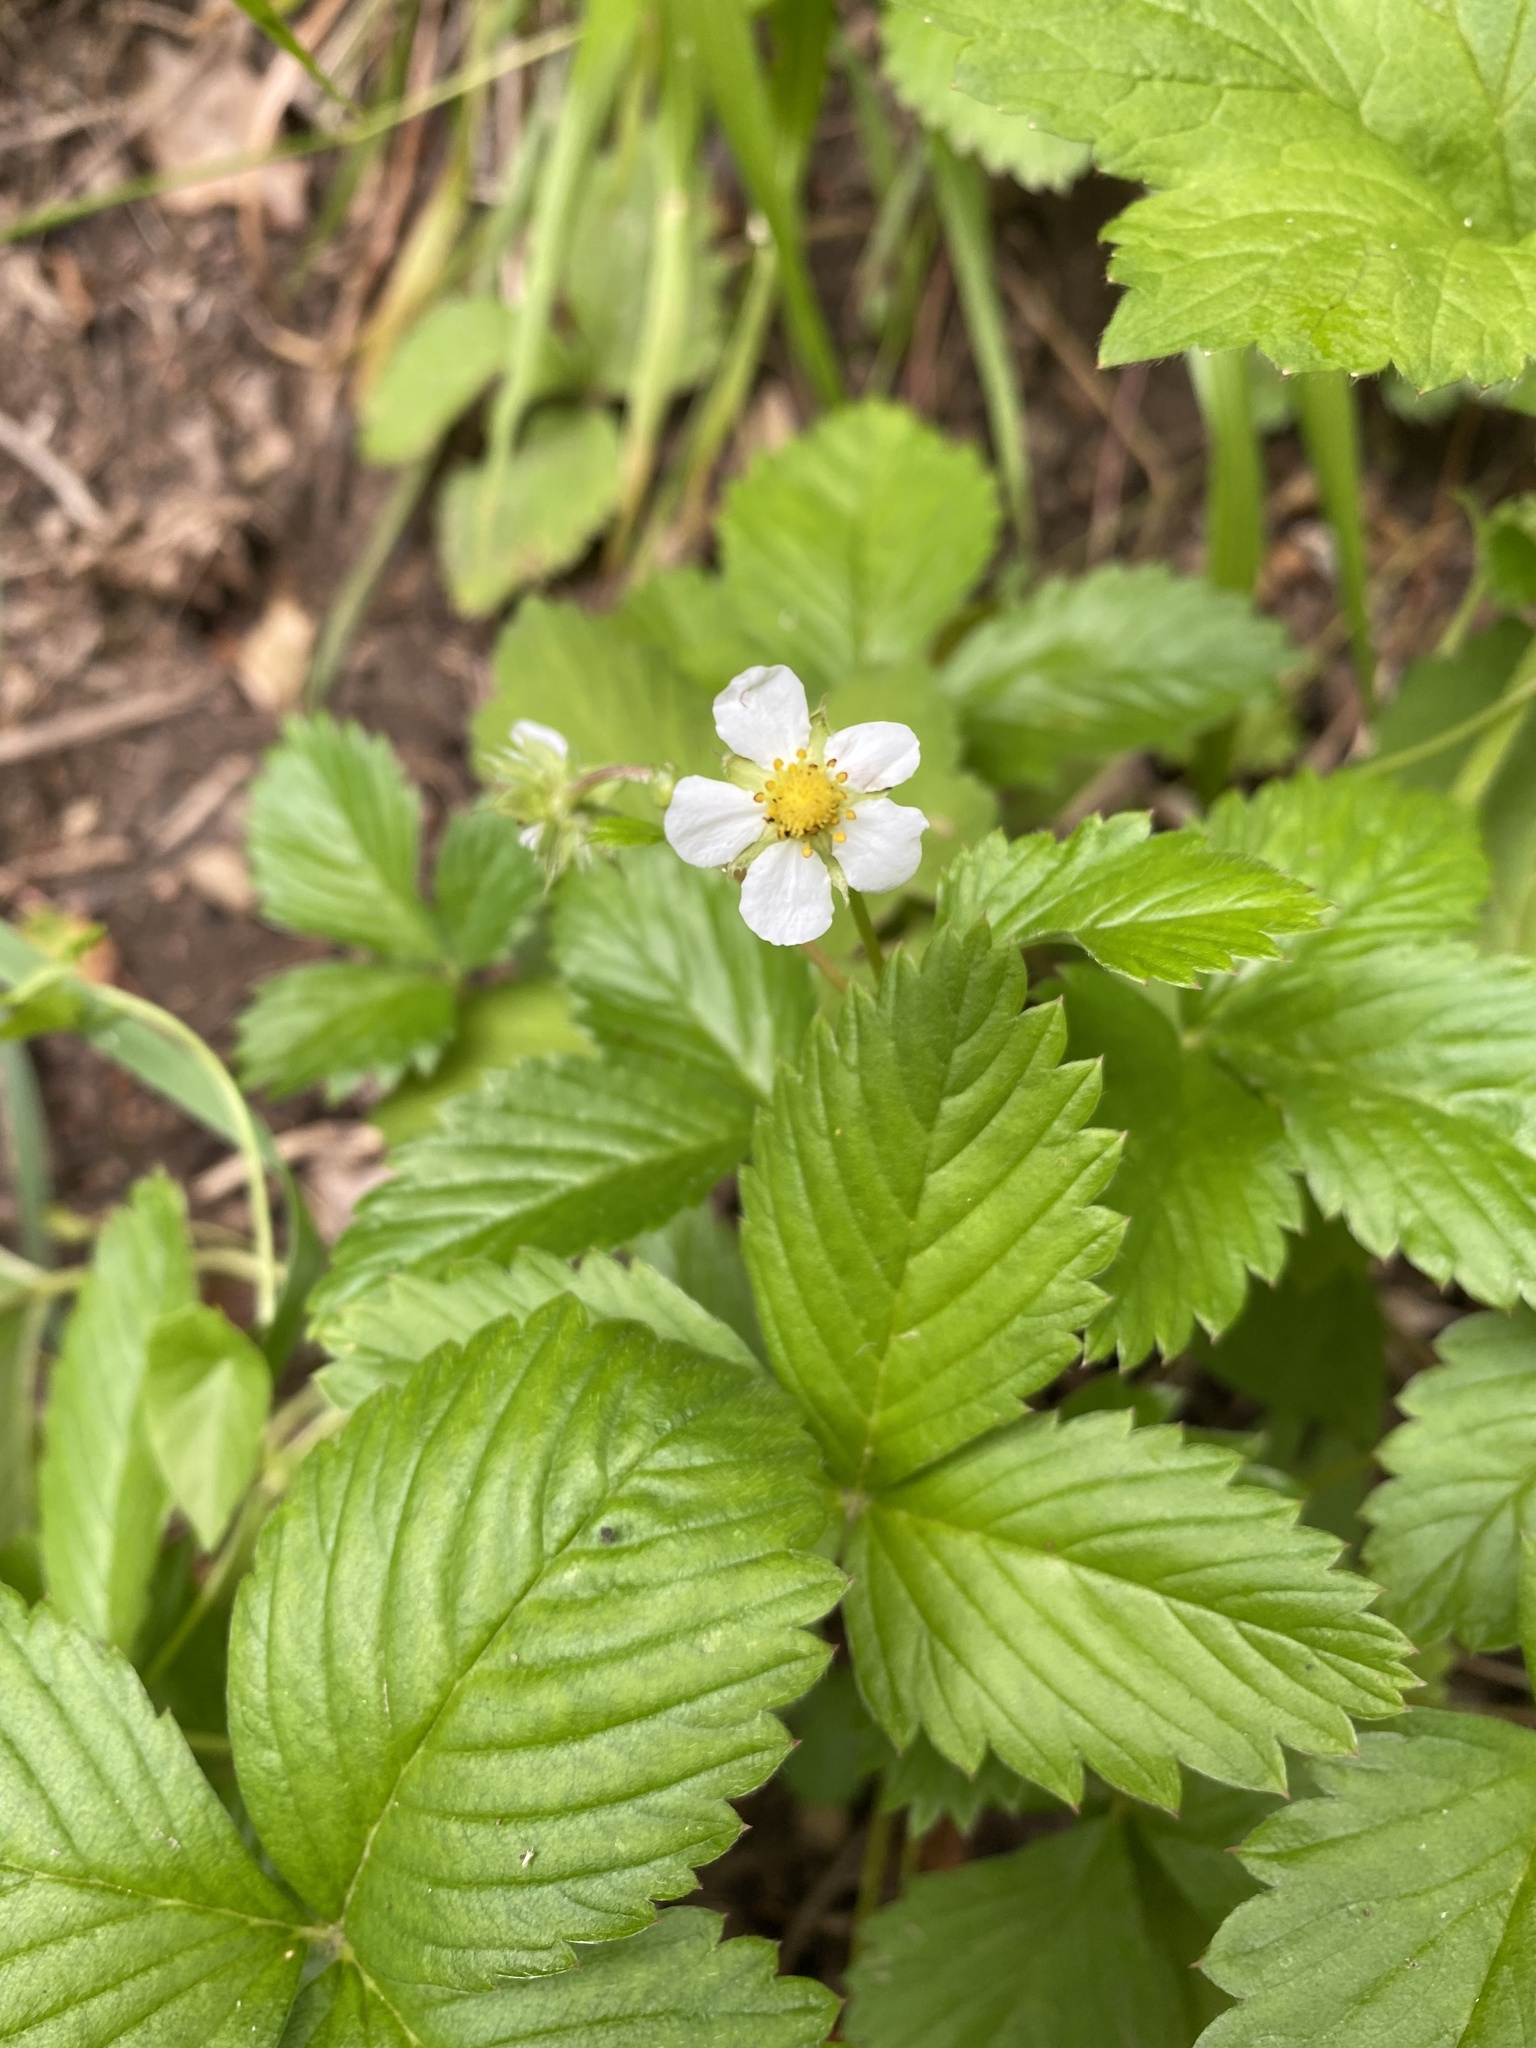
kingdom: Plantae
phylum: Tracheophyta
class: Magnoliopsida
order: Rosales
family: Rosaceae
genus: Fragaria
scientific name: Fragaria vesca
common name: Wild strawberry
